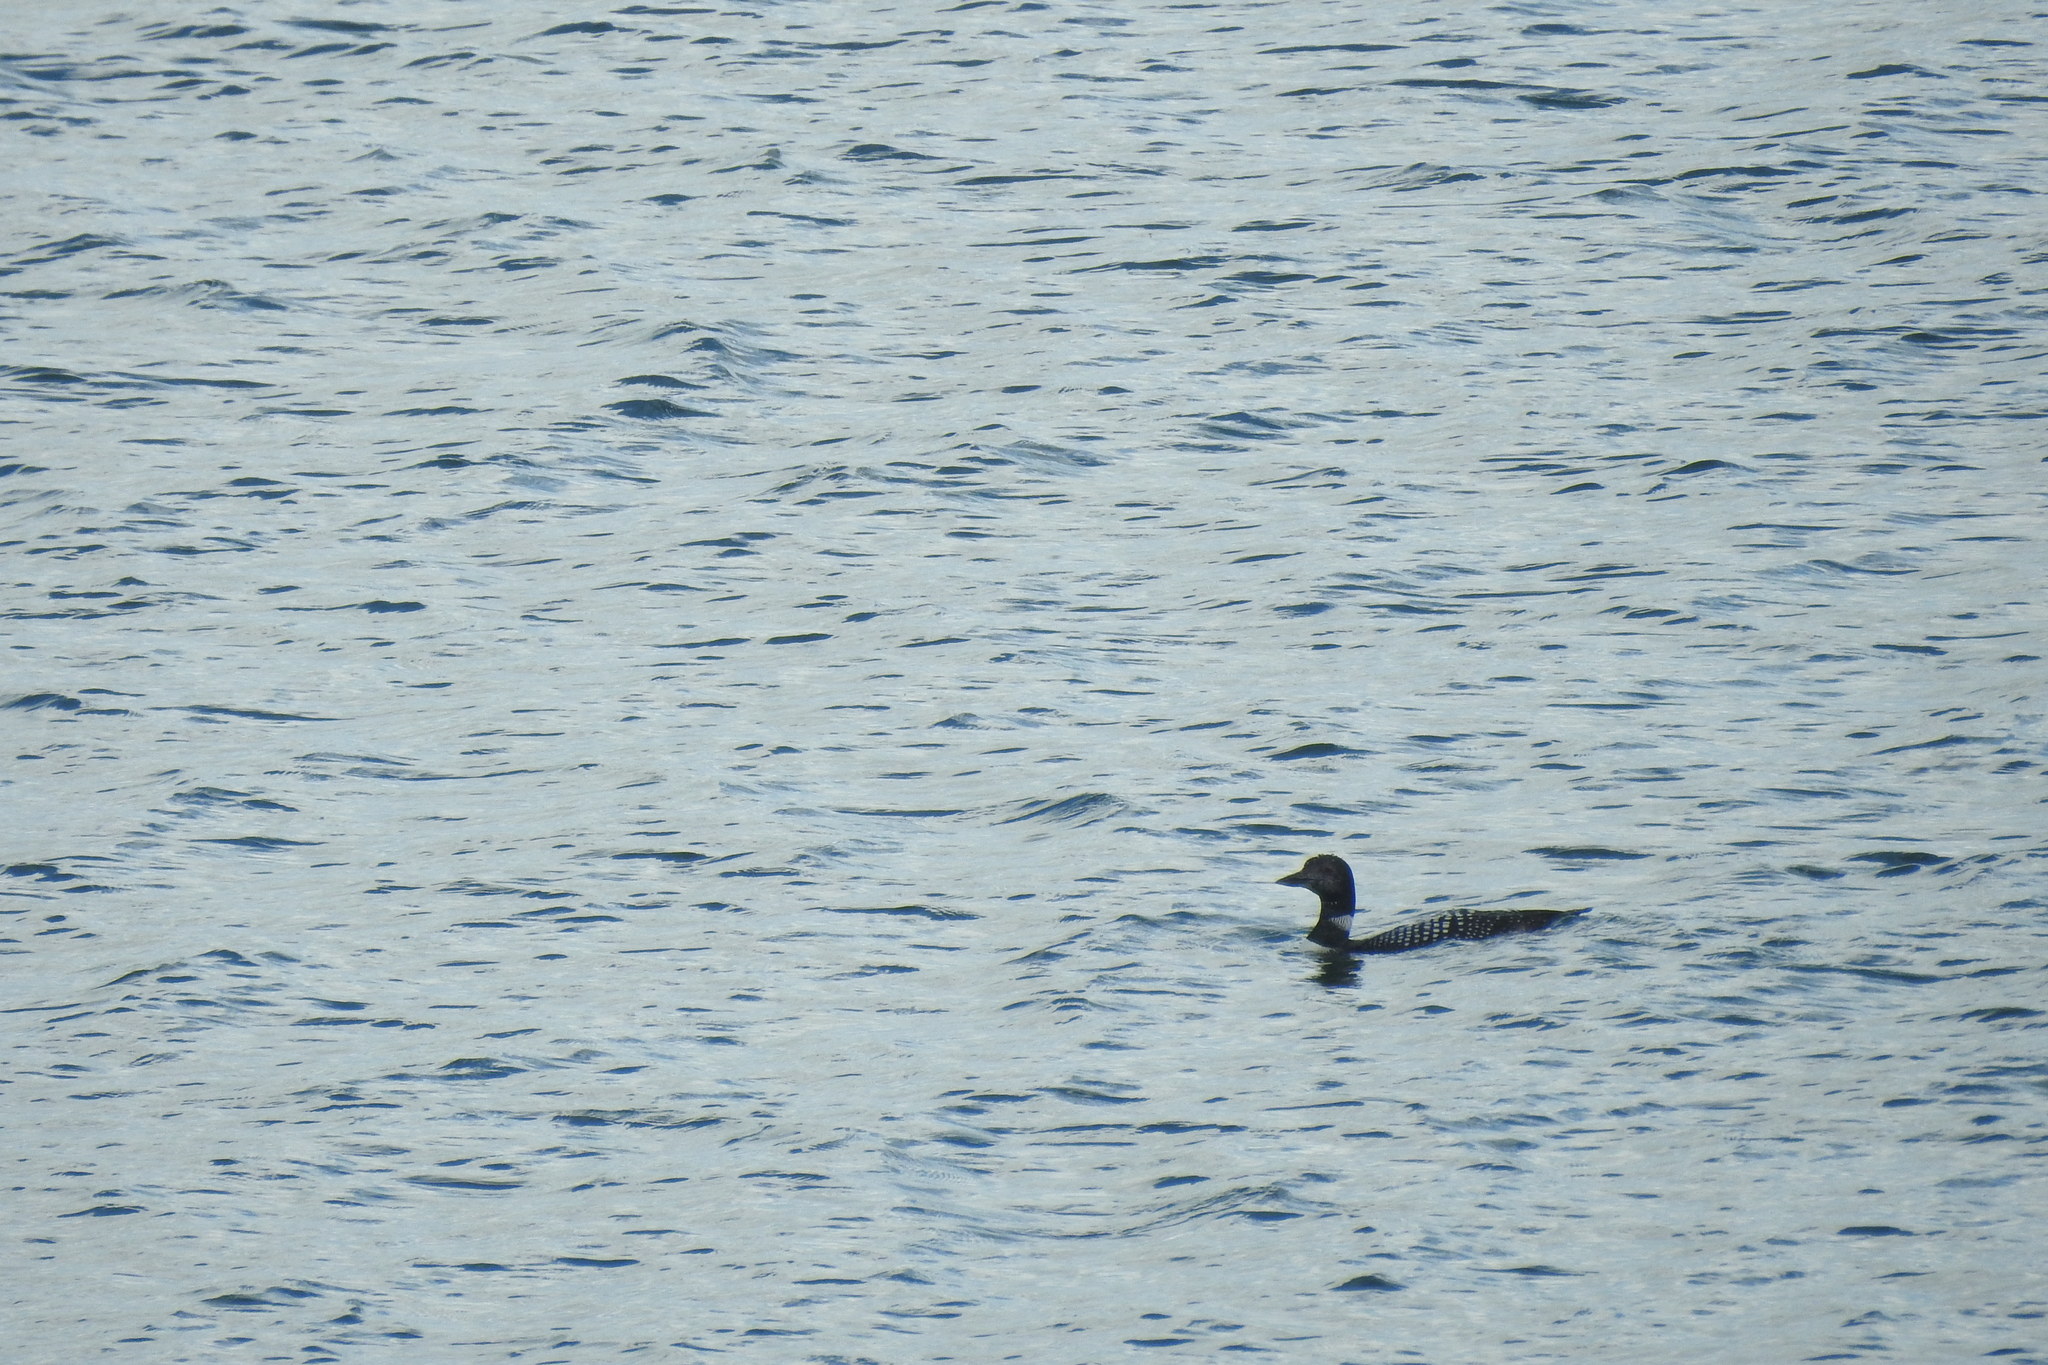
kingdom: Animalia
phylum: Chordata
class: Aves
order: Gaviiformes
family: Gaviidae
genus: Gavia
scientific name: Gavia immer
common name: Common loon
